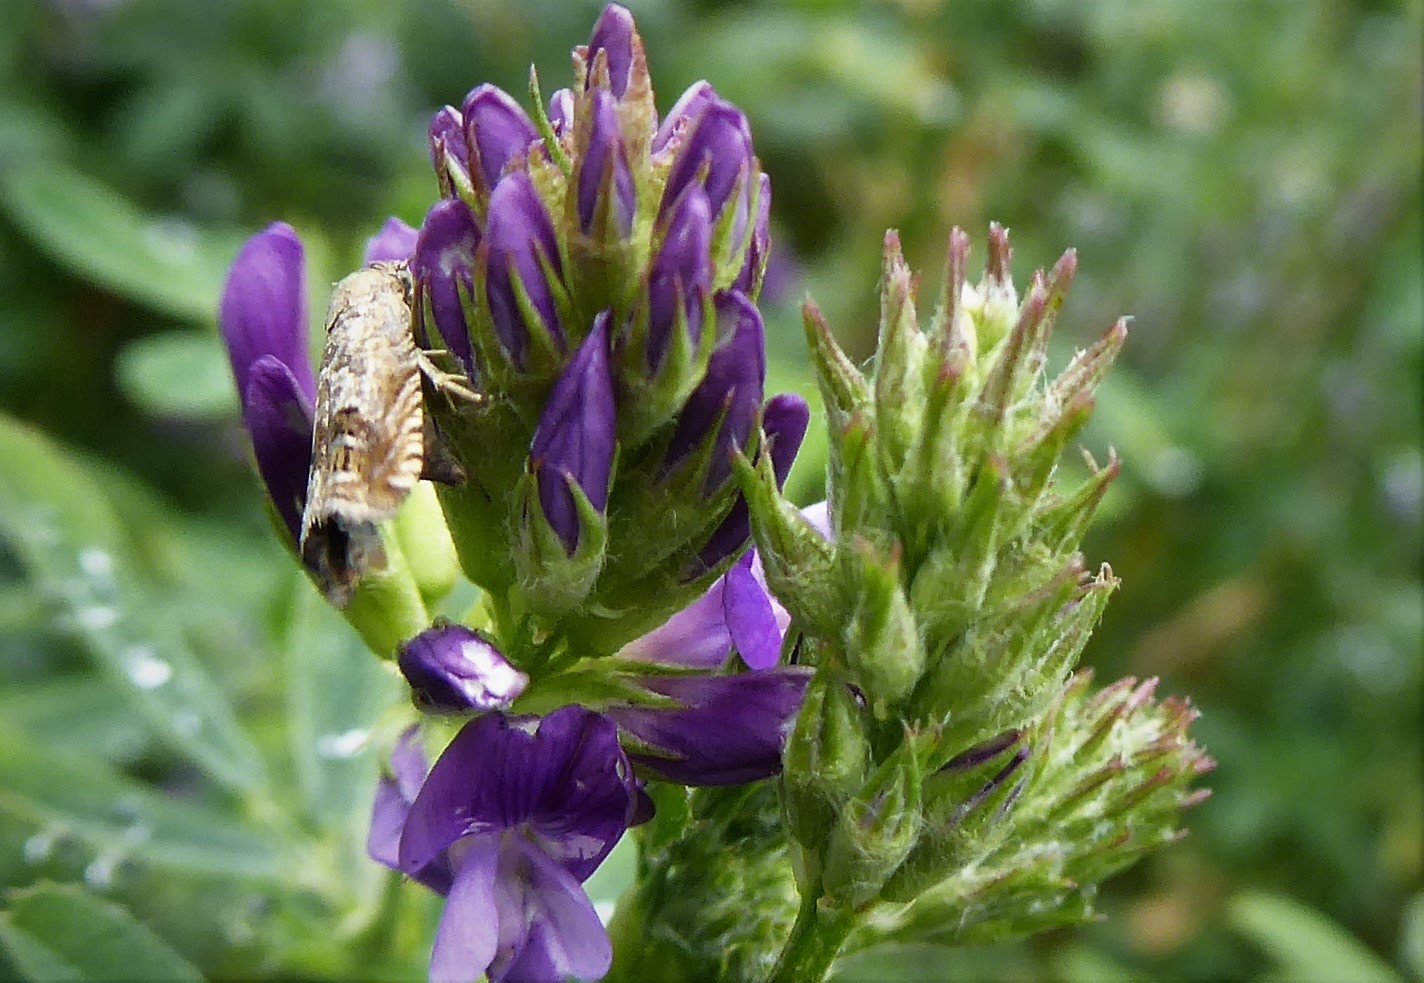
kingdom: Animalia
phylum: Arthropoda
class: Insecta
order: Lepidoptera
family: Tortricidae
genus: Cydia
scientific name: Cydia succedana
